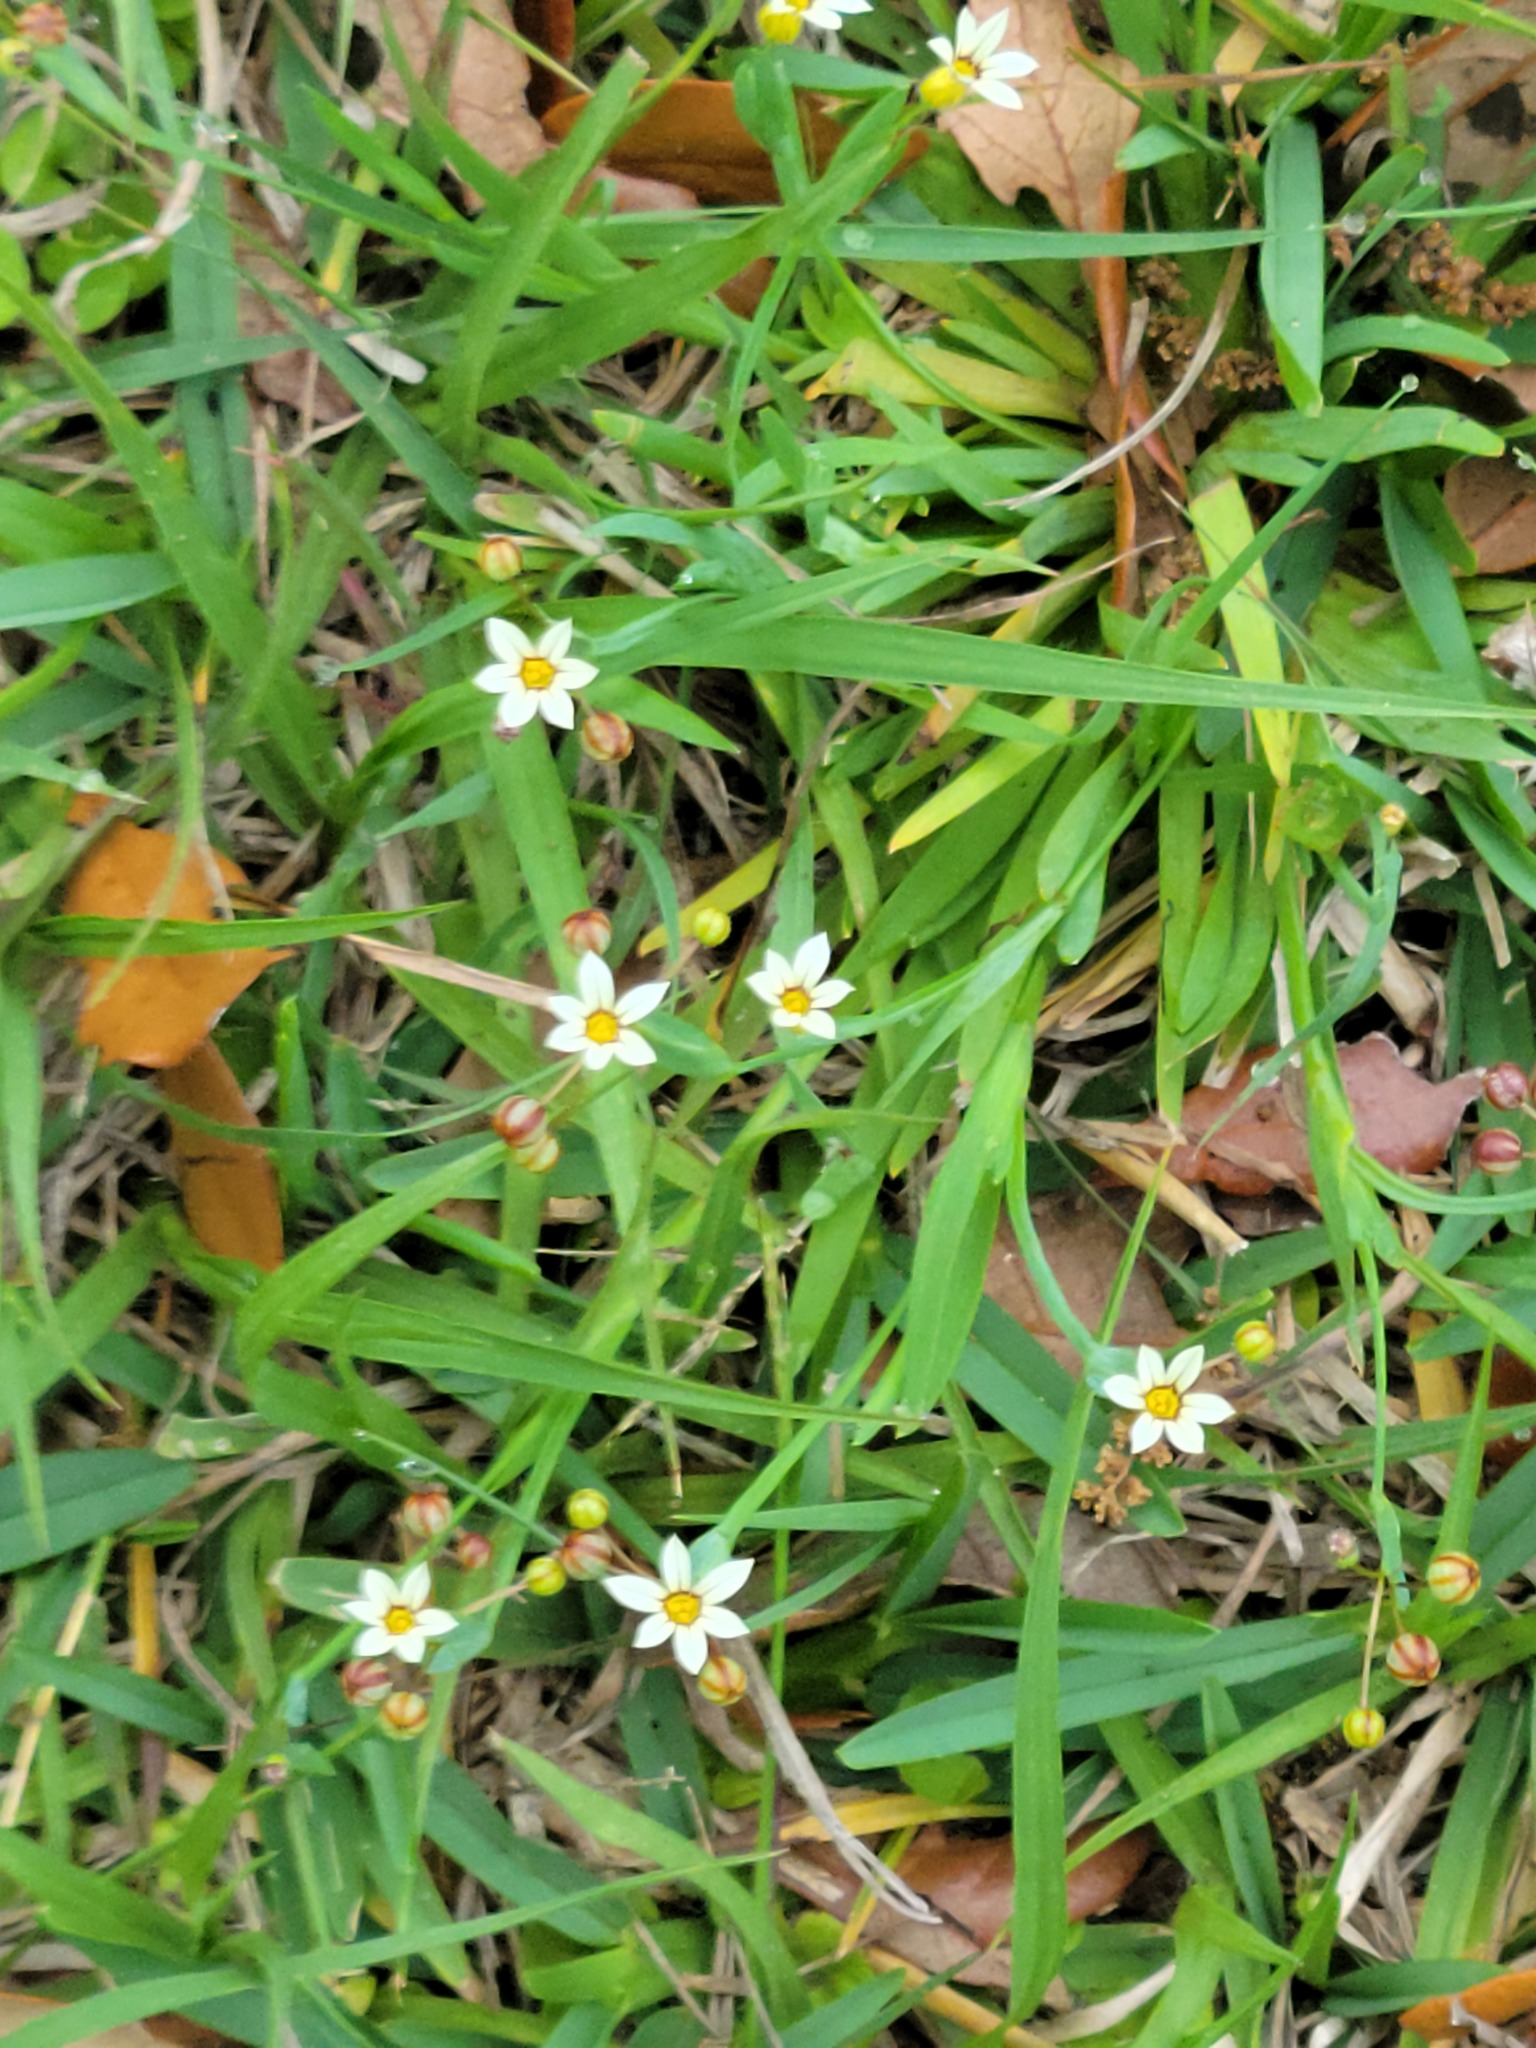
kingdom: Plantae
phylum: Tracheophyta
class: Liliopsida
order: Asparagales
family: Iridaceae
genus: Sisyrinchium
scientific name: Sisyrinchium micranthum
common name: Bermuda pigroot
